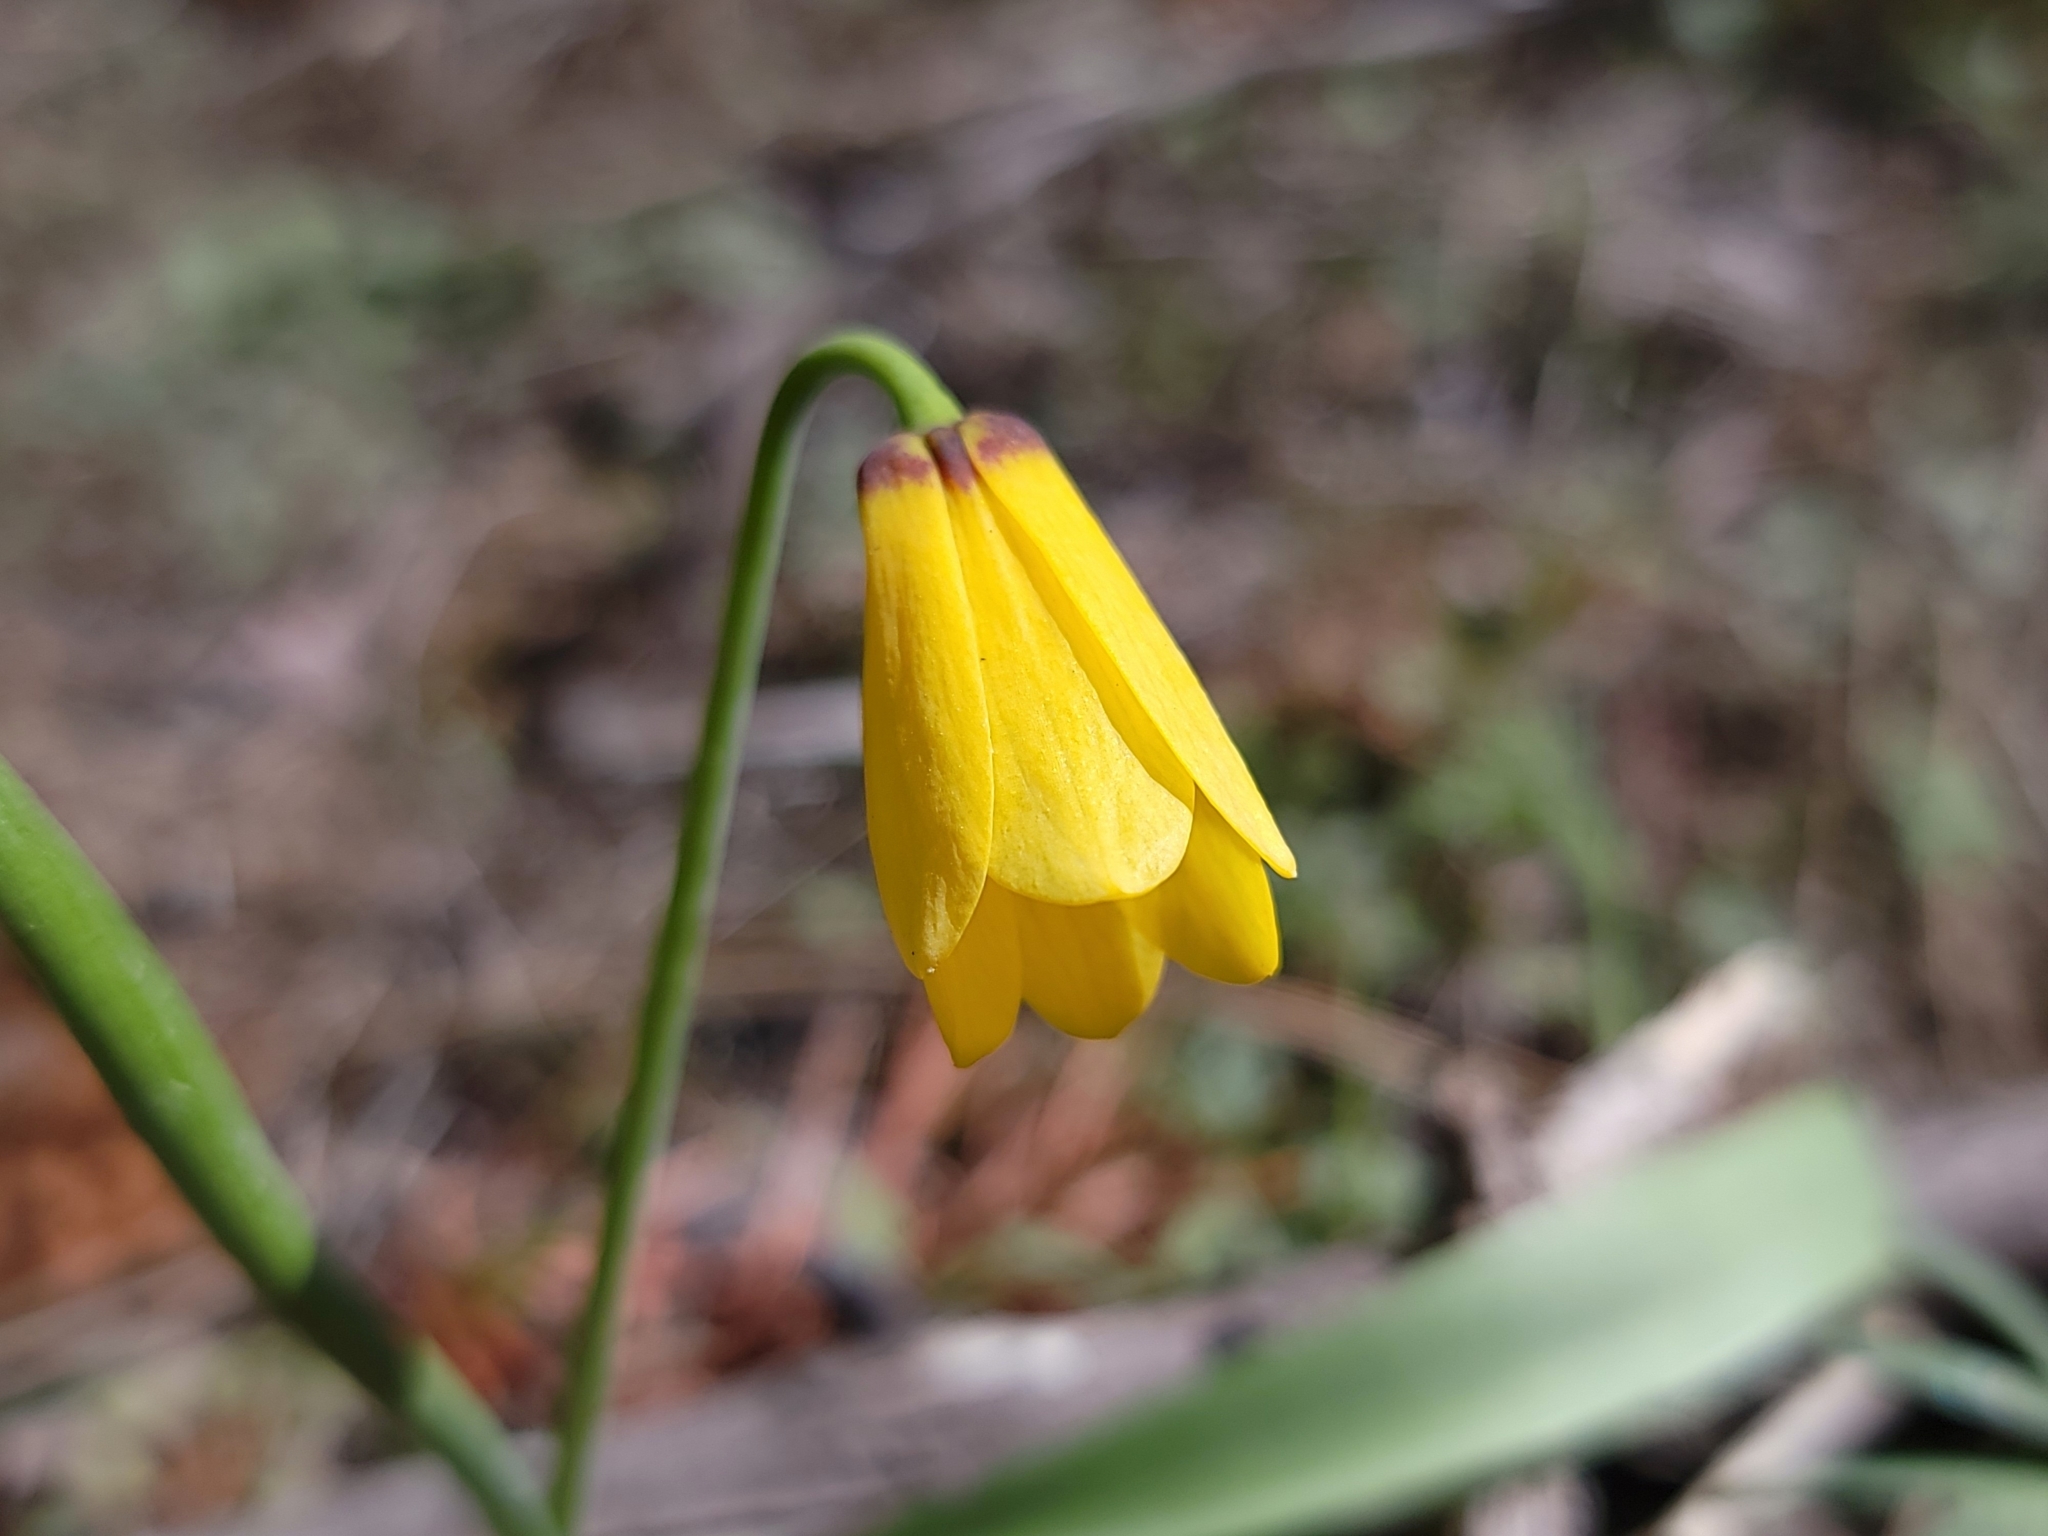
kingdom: Plantae
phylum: Tracheophyta
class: Liliopsida
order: Liliales
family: Liliaceae
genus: Fritillaria
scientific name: Fritillaria pudica
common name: Yellow fritillary
